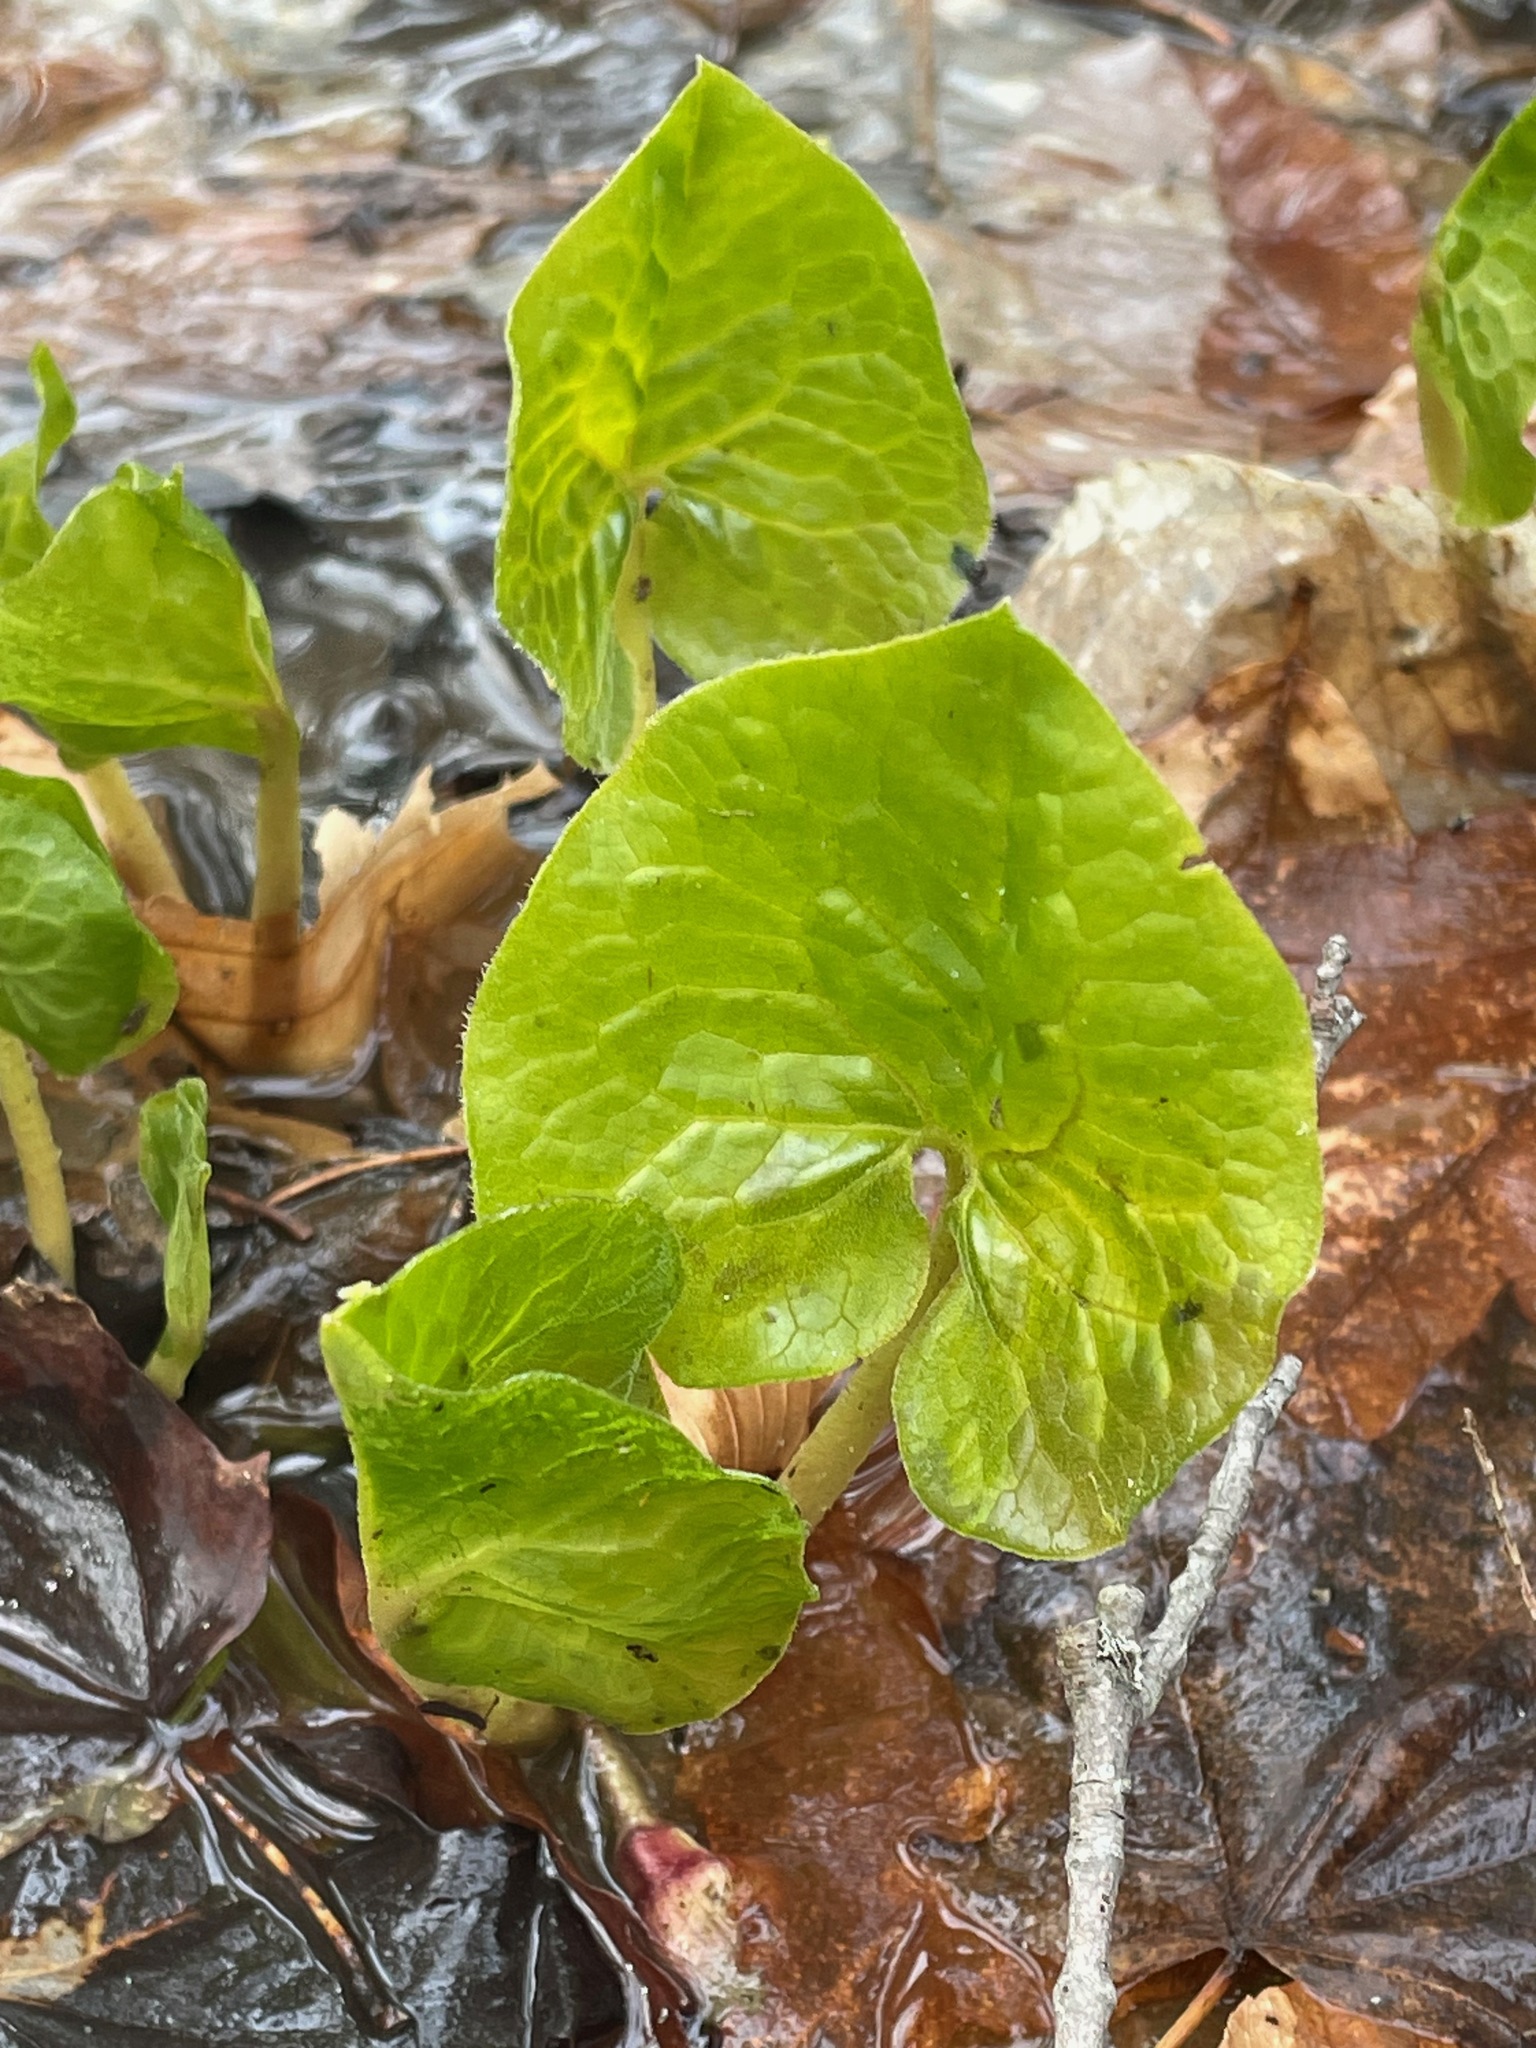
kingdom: Plantae
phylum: Tracheophyta
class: Magnoliopsida
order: Piperales
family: Aristolochiaceae
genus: Asarum
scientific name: Asarum canadense
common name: Wild ginger
